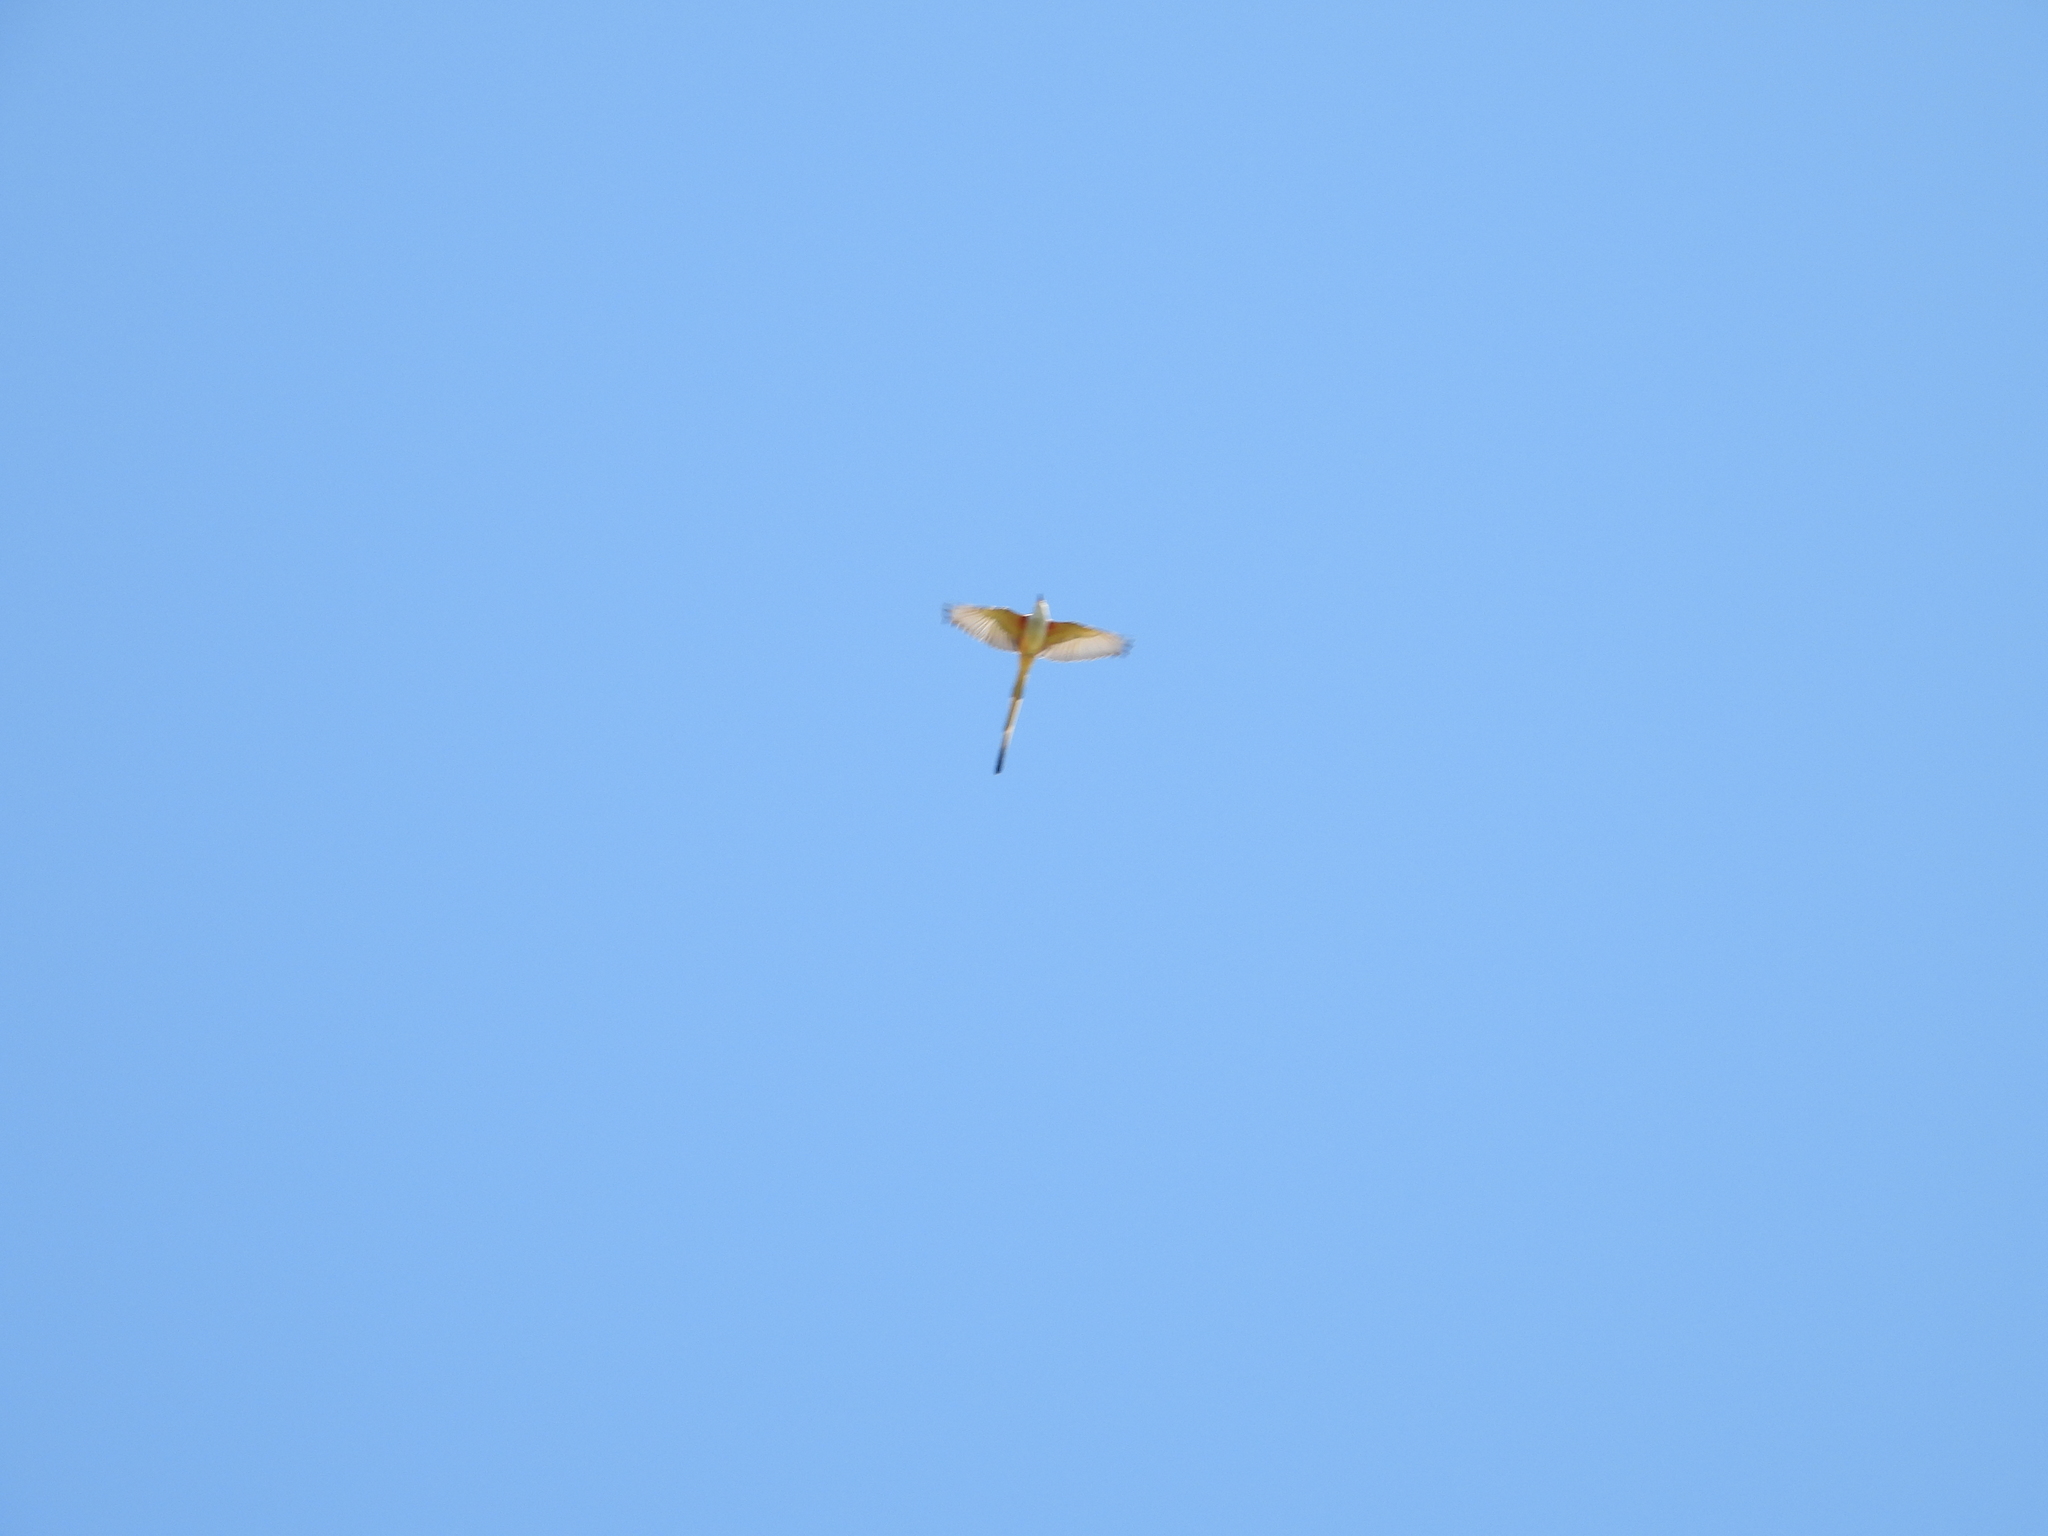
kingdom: Animalia
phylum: Chordata
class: Aves
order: Passeriformes
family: Tyrannidae
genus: Tyrannus
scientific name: Tyrannus forficatus
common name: Scissor-tailed flycatcher
